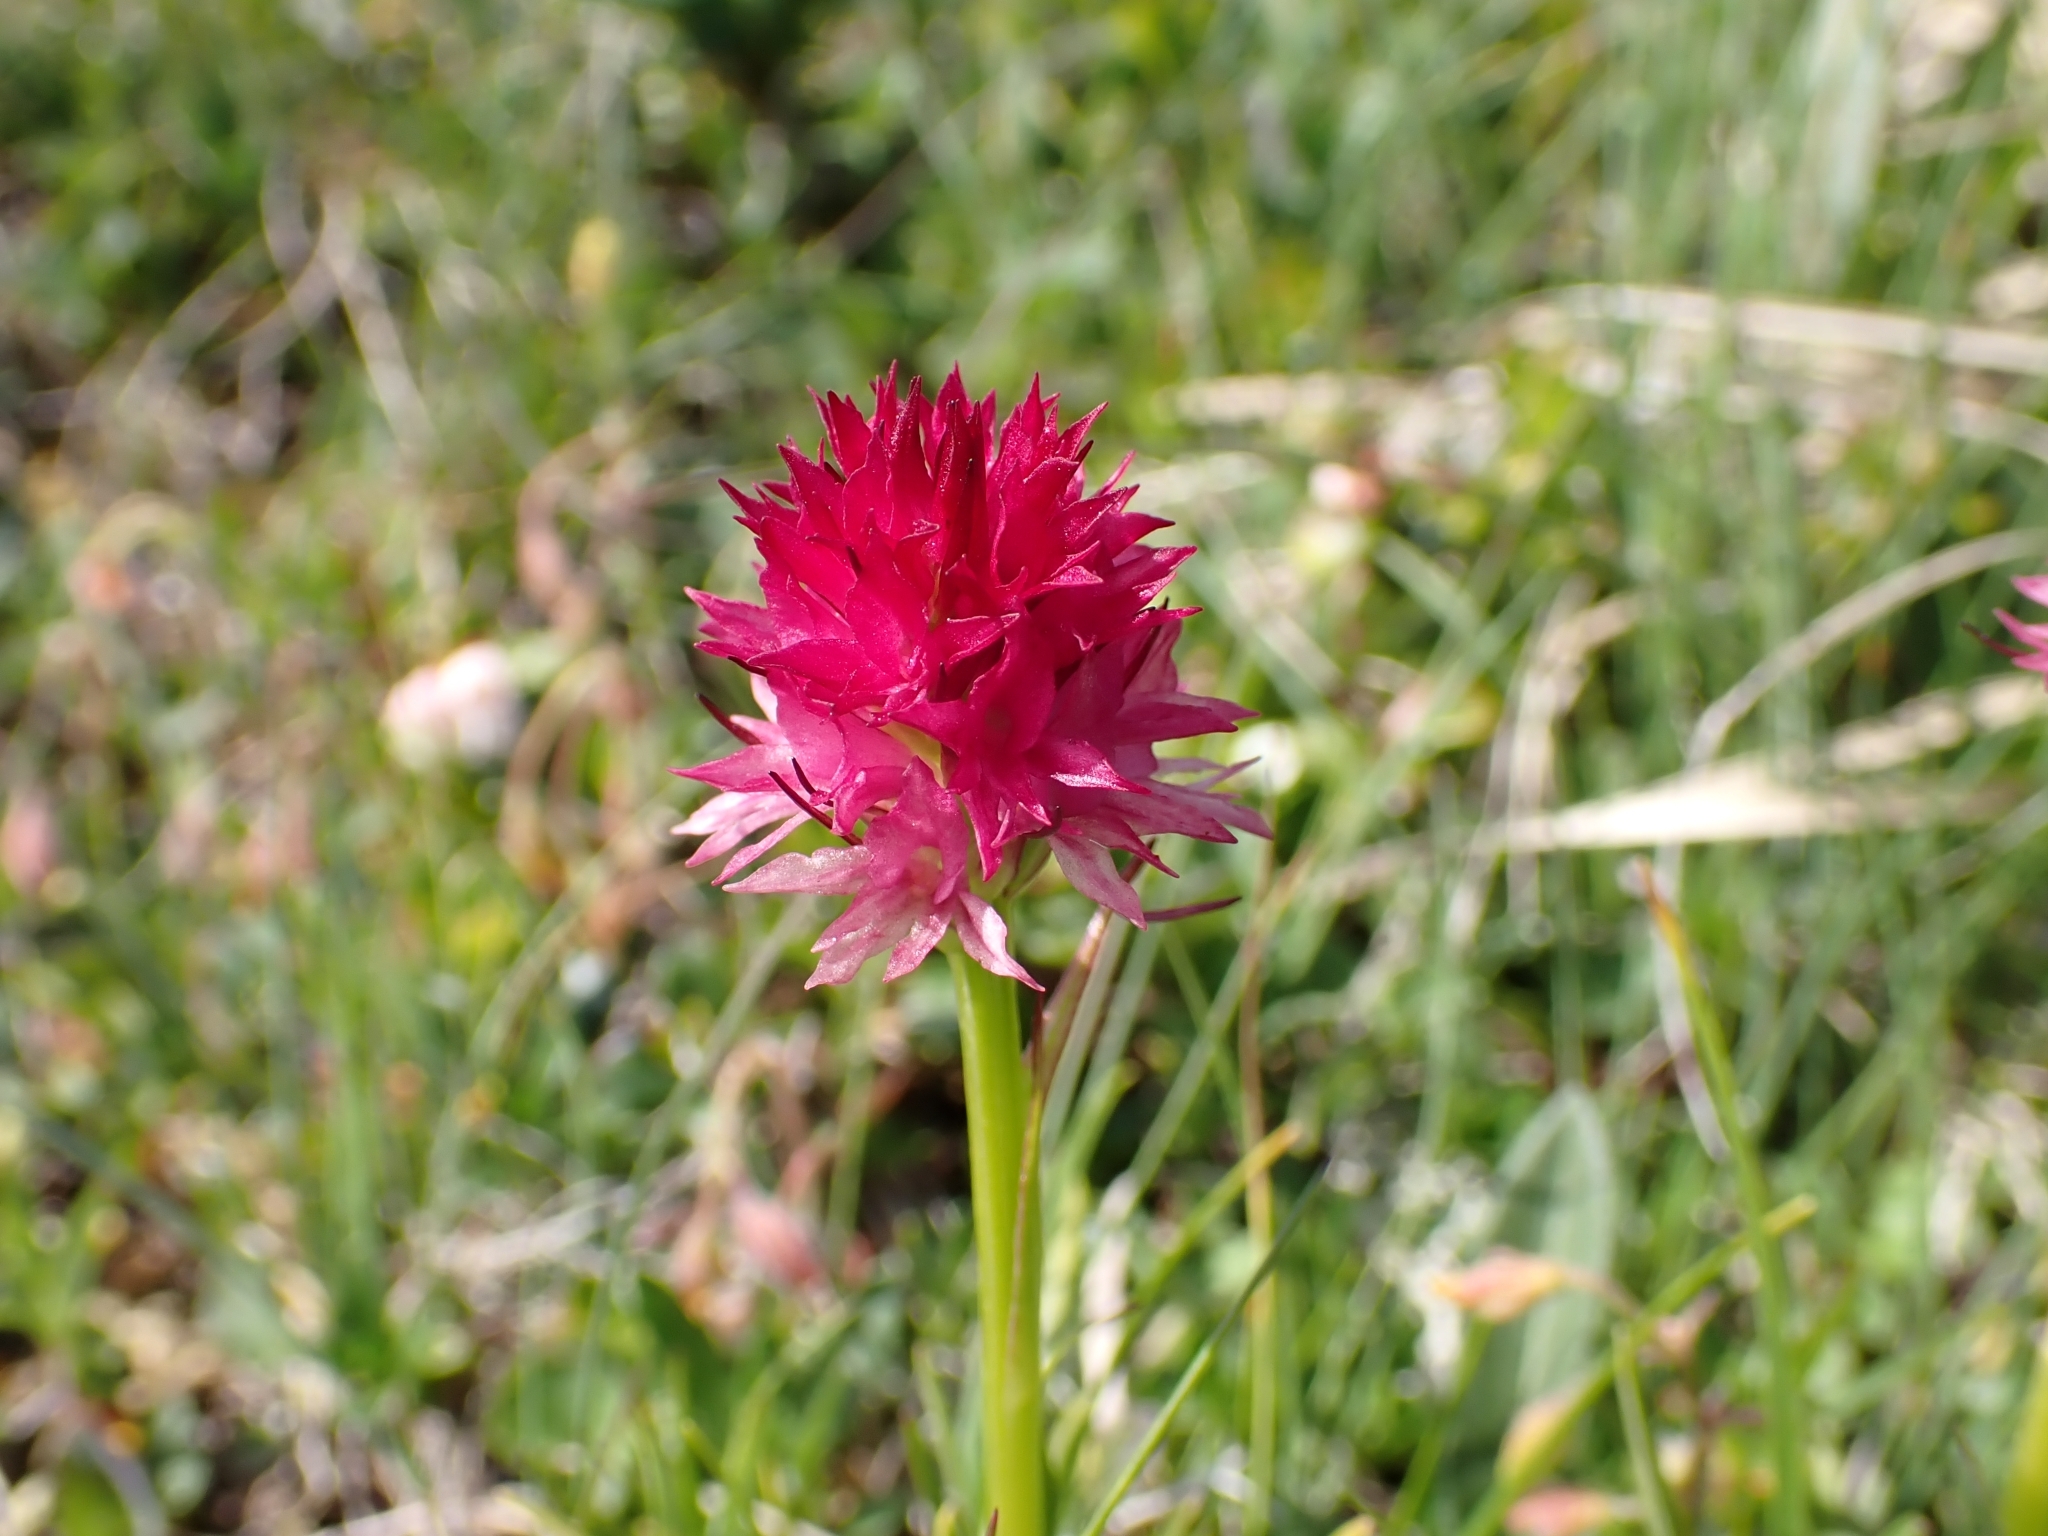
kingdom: Plantae
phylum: Tracheophyta
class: Liliopsida
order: Asparagales
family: Orchidaceae
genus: Gymnadenia
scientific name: Gymnadenia miniata
